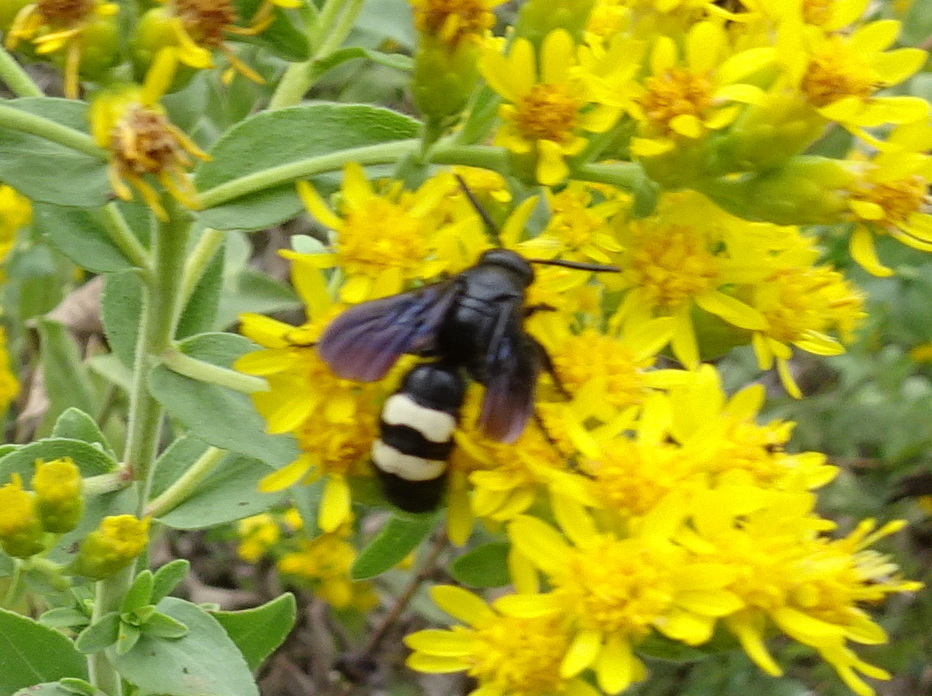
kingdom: Animalia
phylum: Arthropoda
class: Insecta
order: Hymenoptera
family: Scoliidae
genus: Scolia
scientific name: Scolia bicincta
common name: Double-banded scoliid wasp
